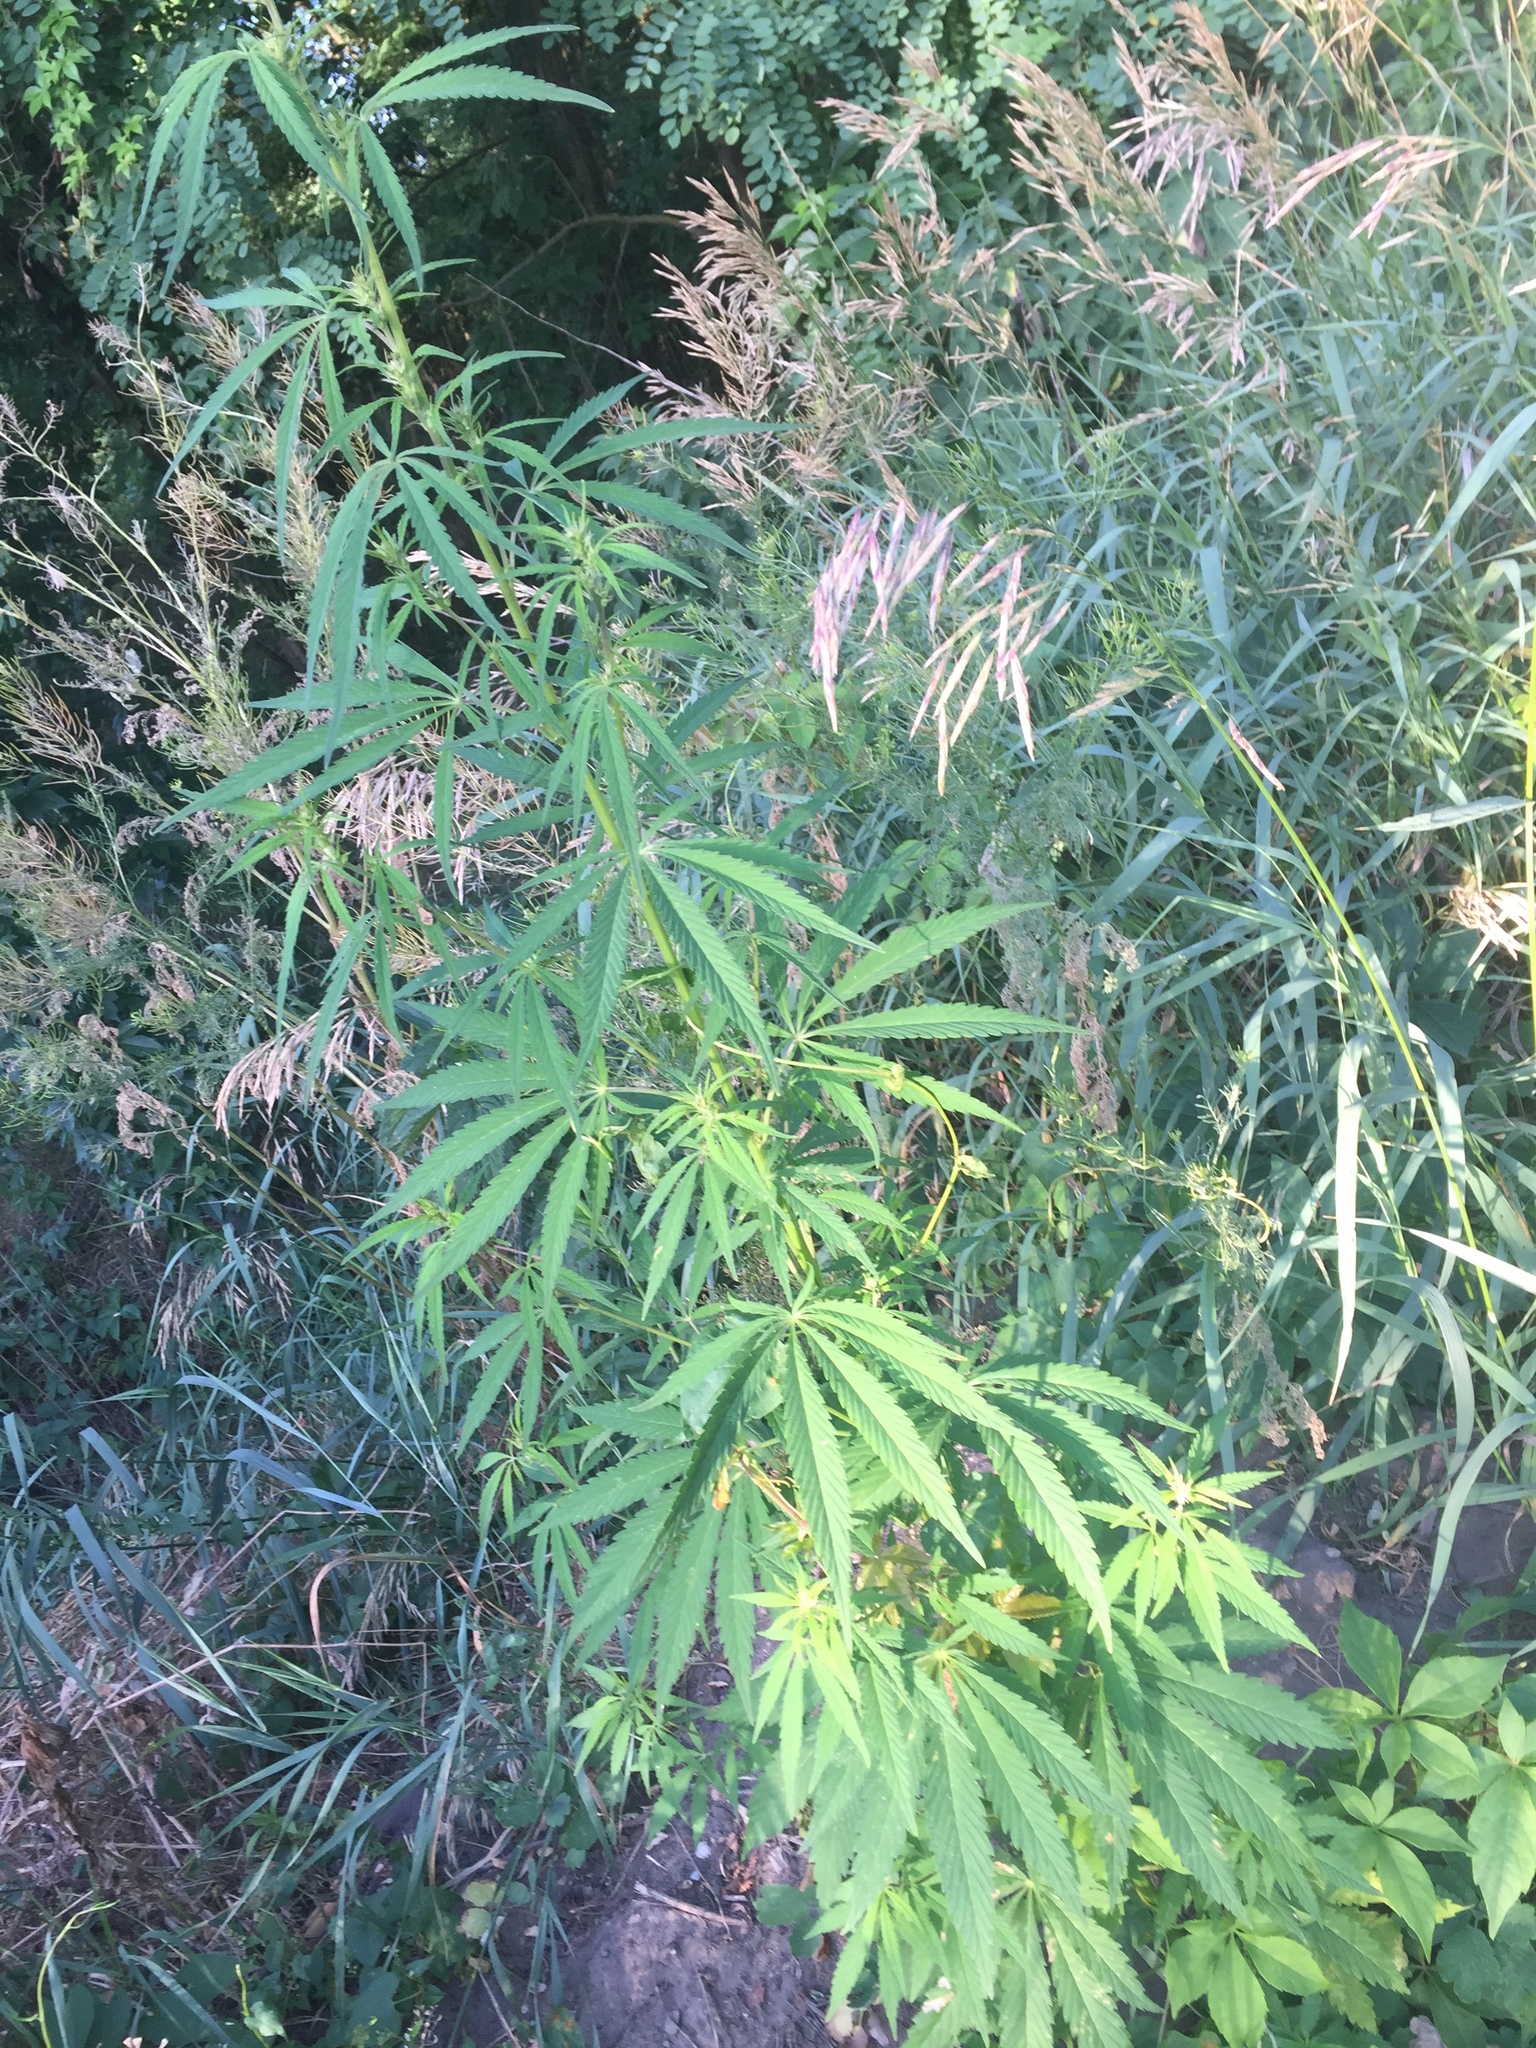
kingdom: Plantae
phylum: Tracheophyta
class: Magnoliopsida
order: Rosales
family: Cannabaceae
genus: Cannabis
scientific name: Cannabis sativa
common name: Hemp
